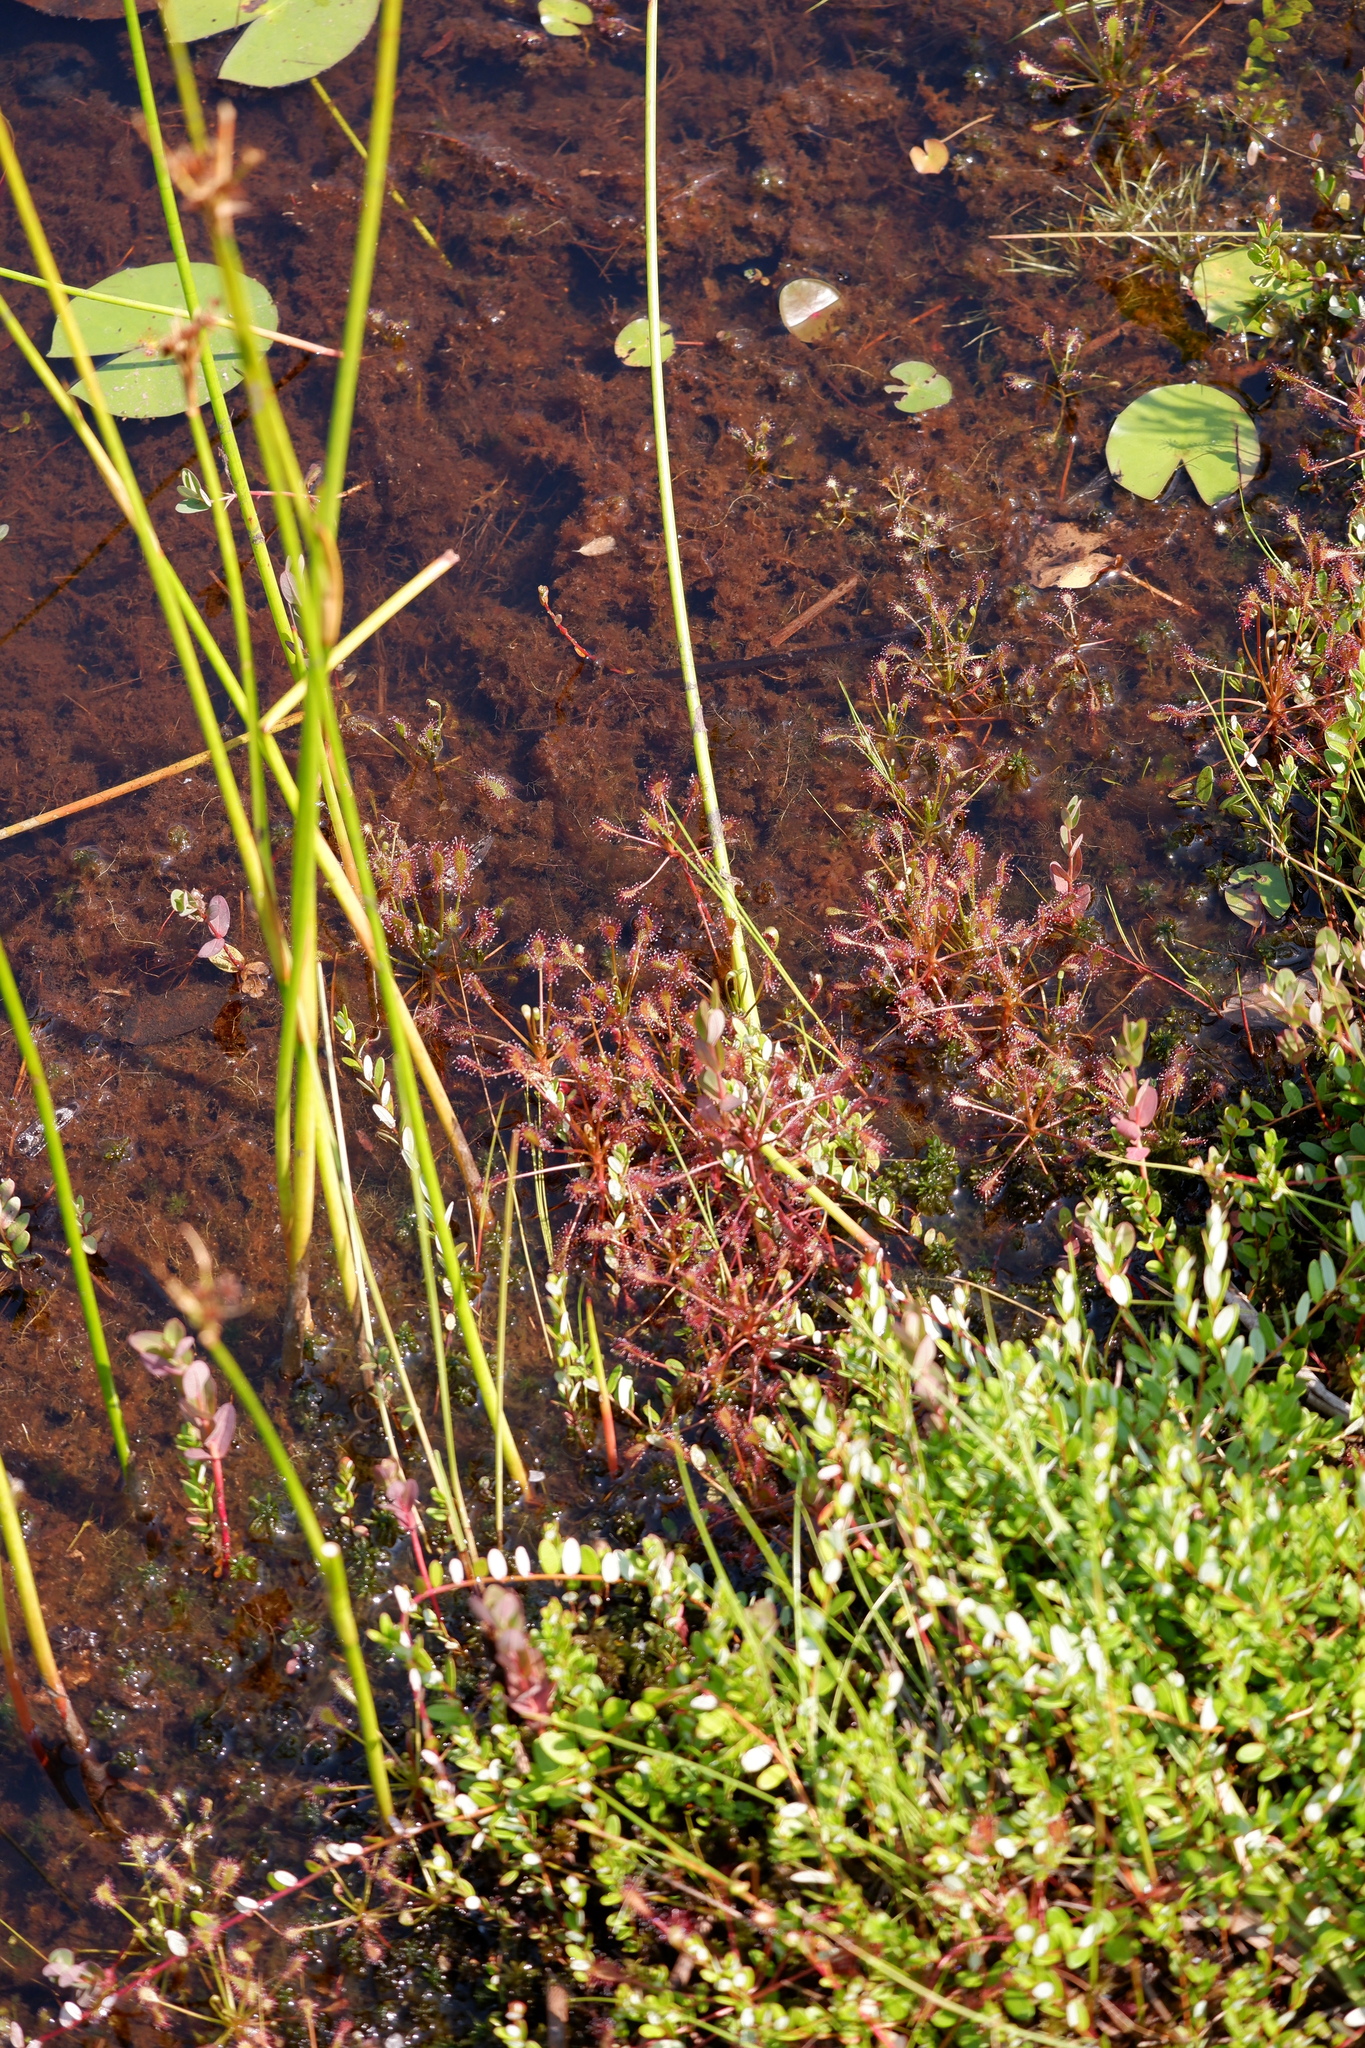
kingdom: Plantae
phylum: Tracheophyta
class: Magnoliopsida
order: Caryophyllales
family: Droseraceae
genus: Drosera
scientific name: Drosera intermedia
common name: Oblong-leaved sundew
